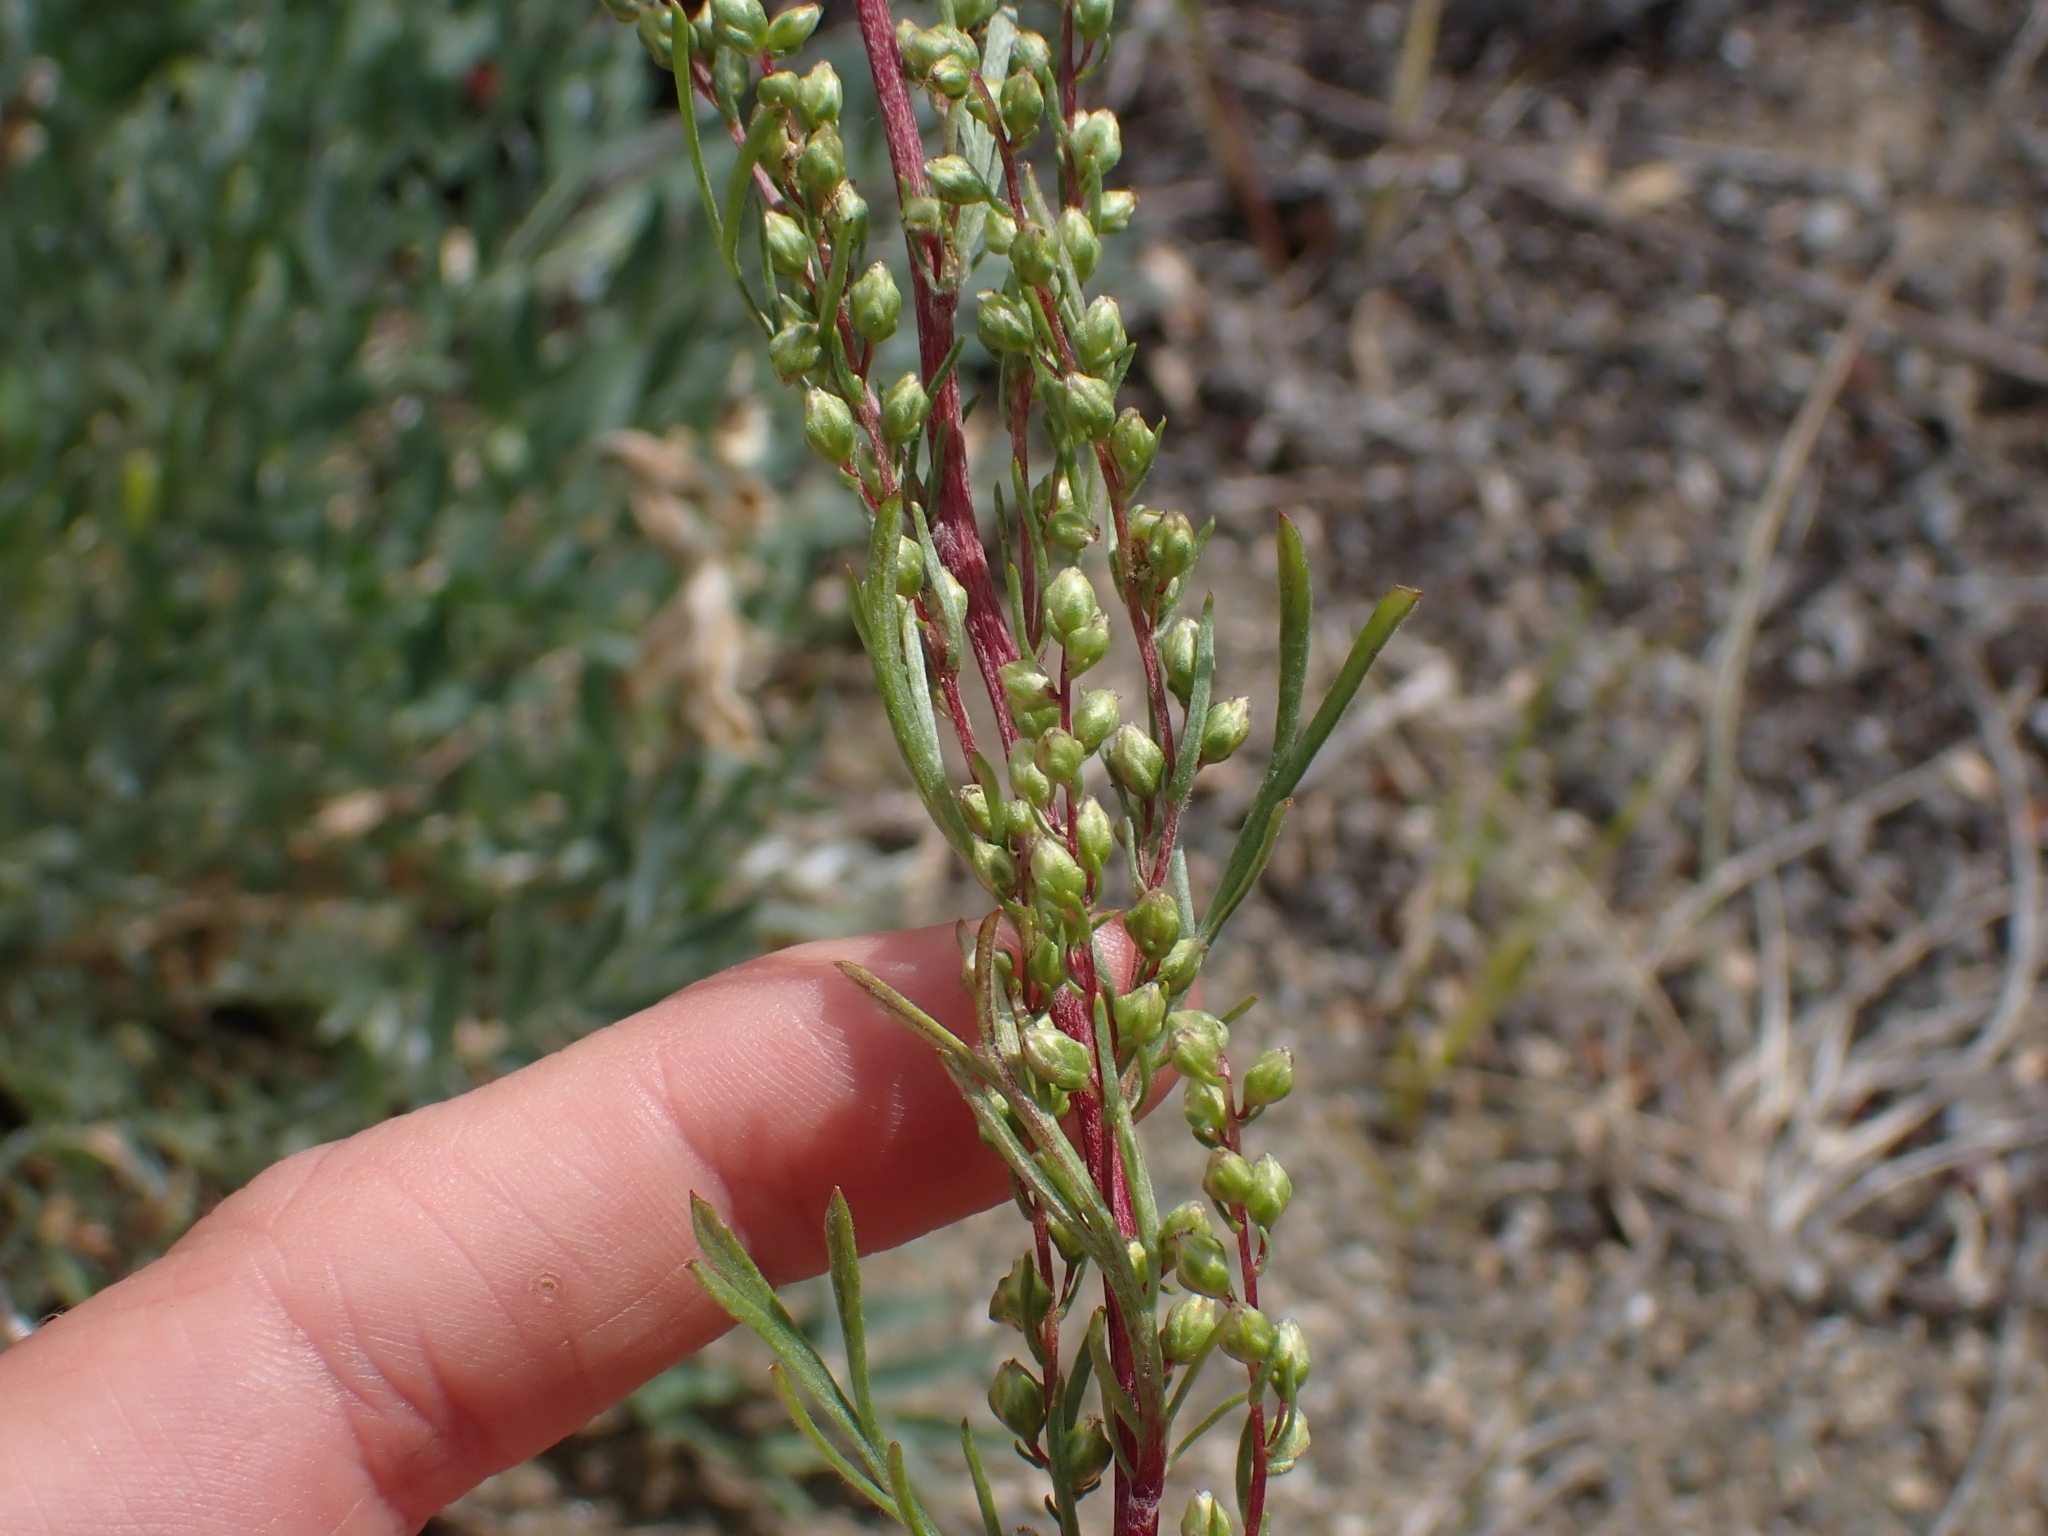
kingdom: Plantae
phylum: Tracheophyta
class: Magnoliopsida
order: Asterales
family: Asteraceae
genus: Artemisia
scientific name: Artemisia campestris
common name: Field wormwood
